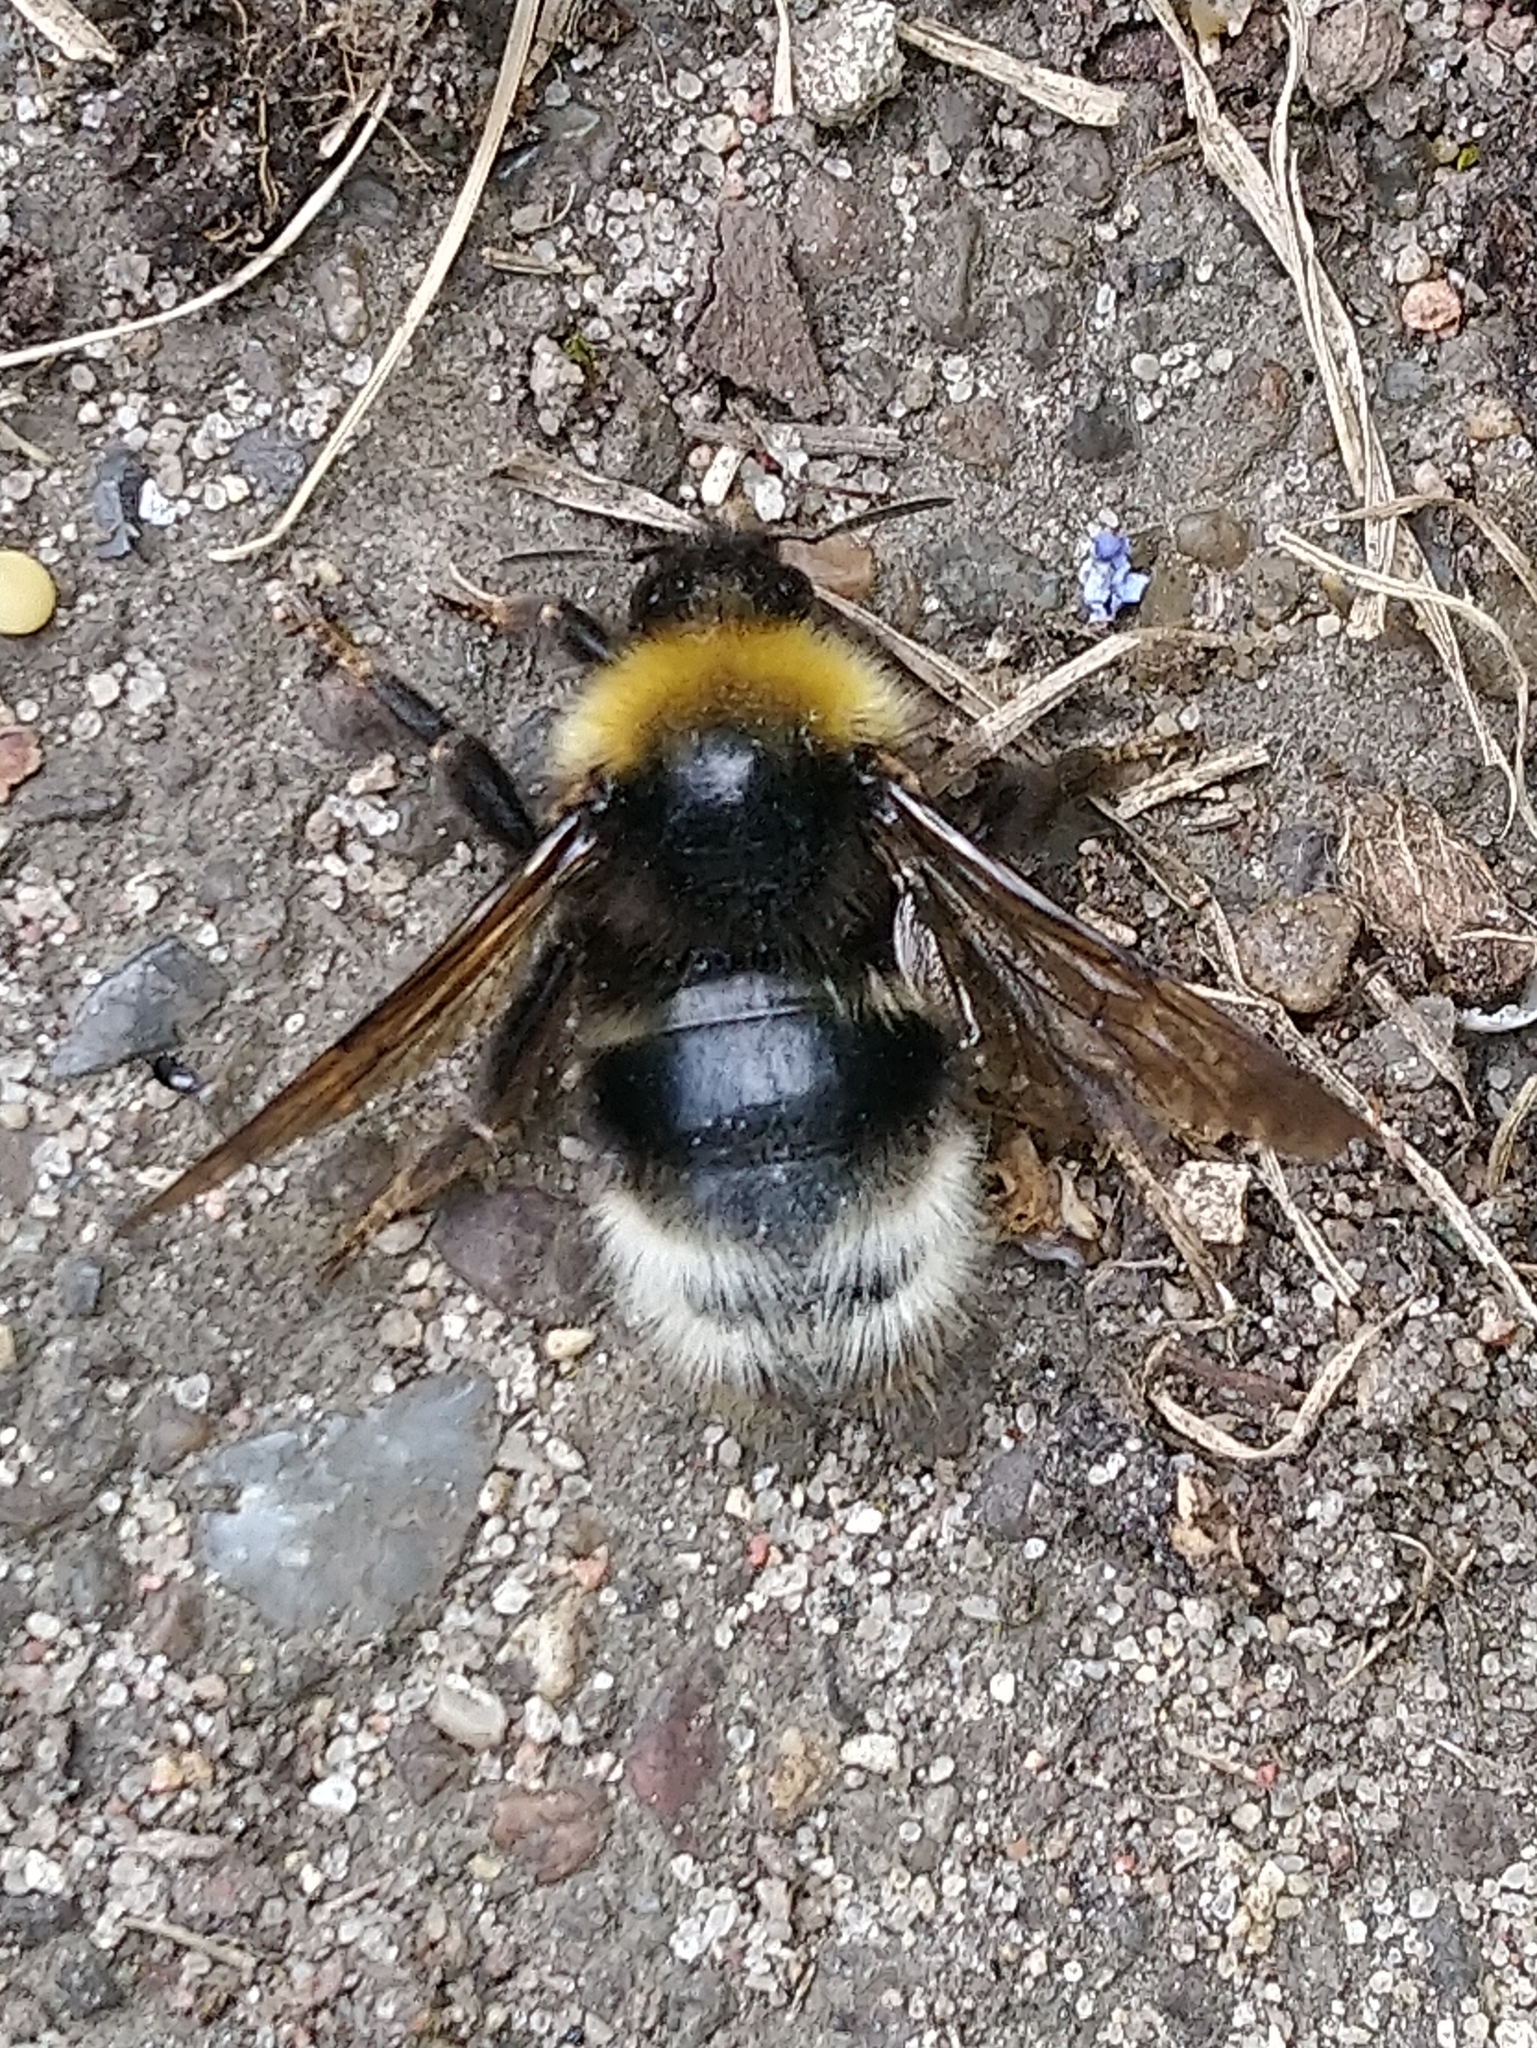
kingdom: Animalia
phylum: Arthropoda
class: Insecta
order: Hymenoptera
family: Apidae
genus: Bombus
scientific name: Bombus bohemicus
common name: Gypsy cuckoo bee
